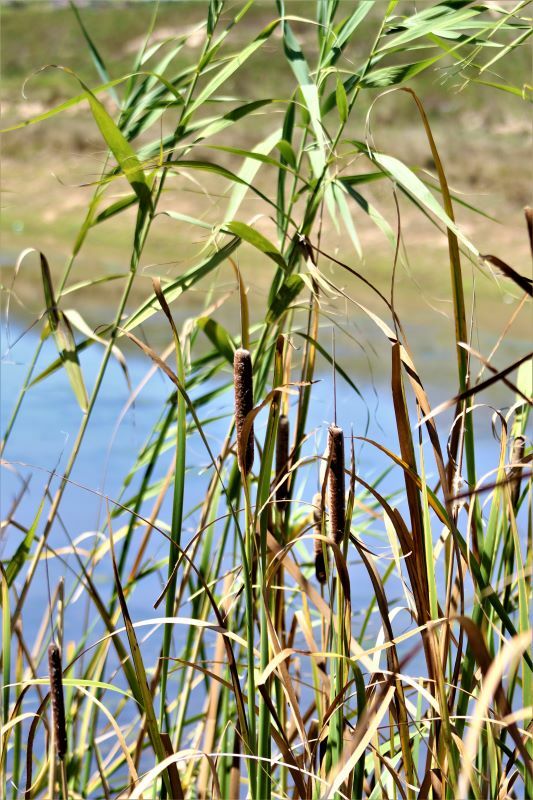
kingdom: Plantae
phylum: Tracheophyta
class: Liliopsida
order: Poales
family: Typhaceae
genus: Typha
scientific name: Typha capensis
